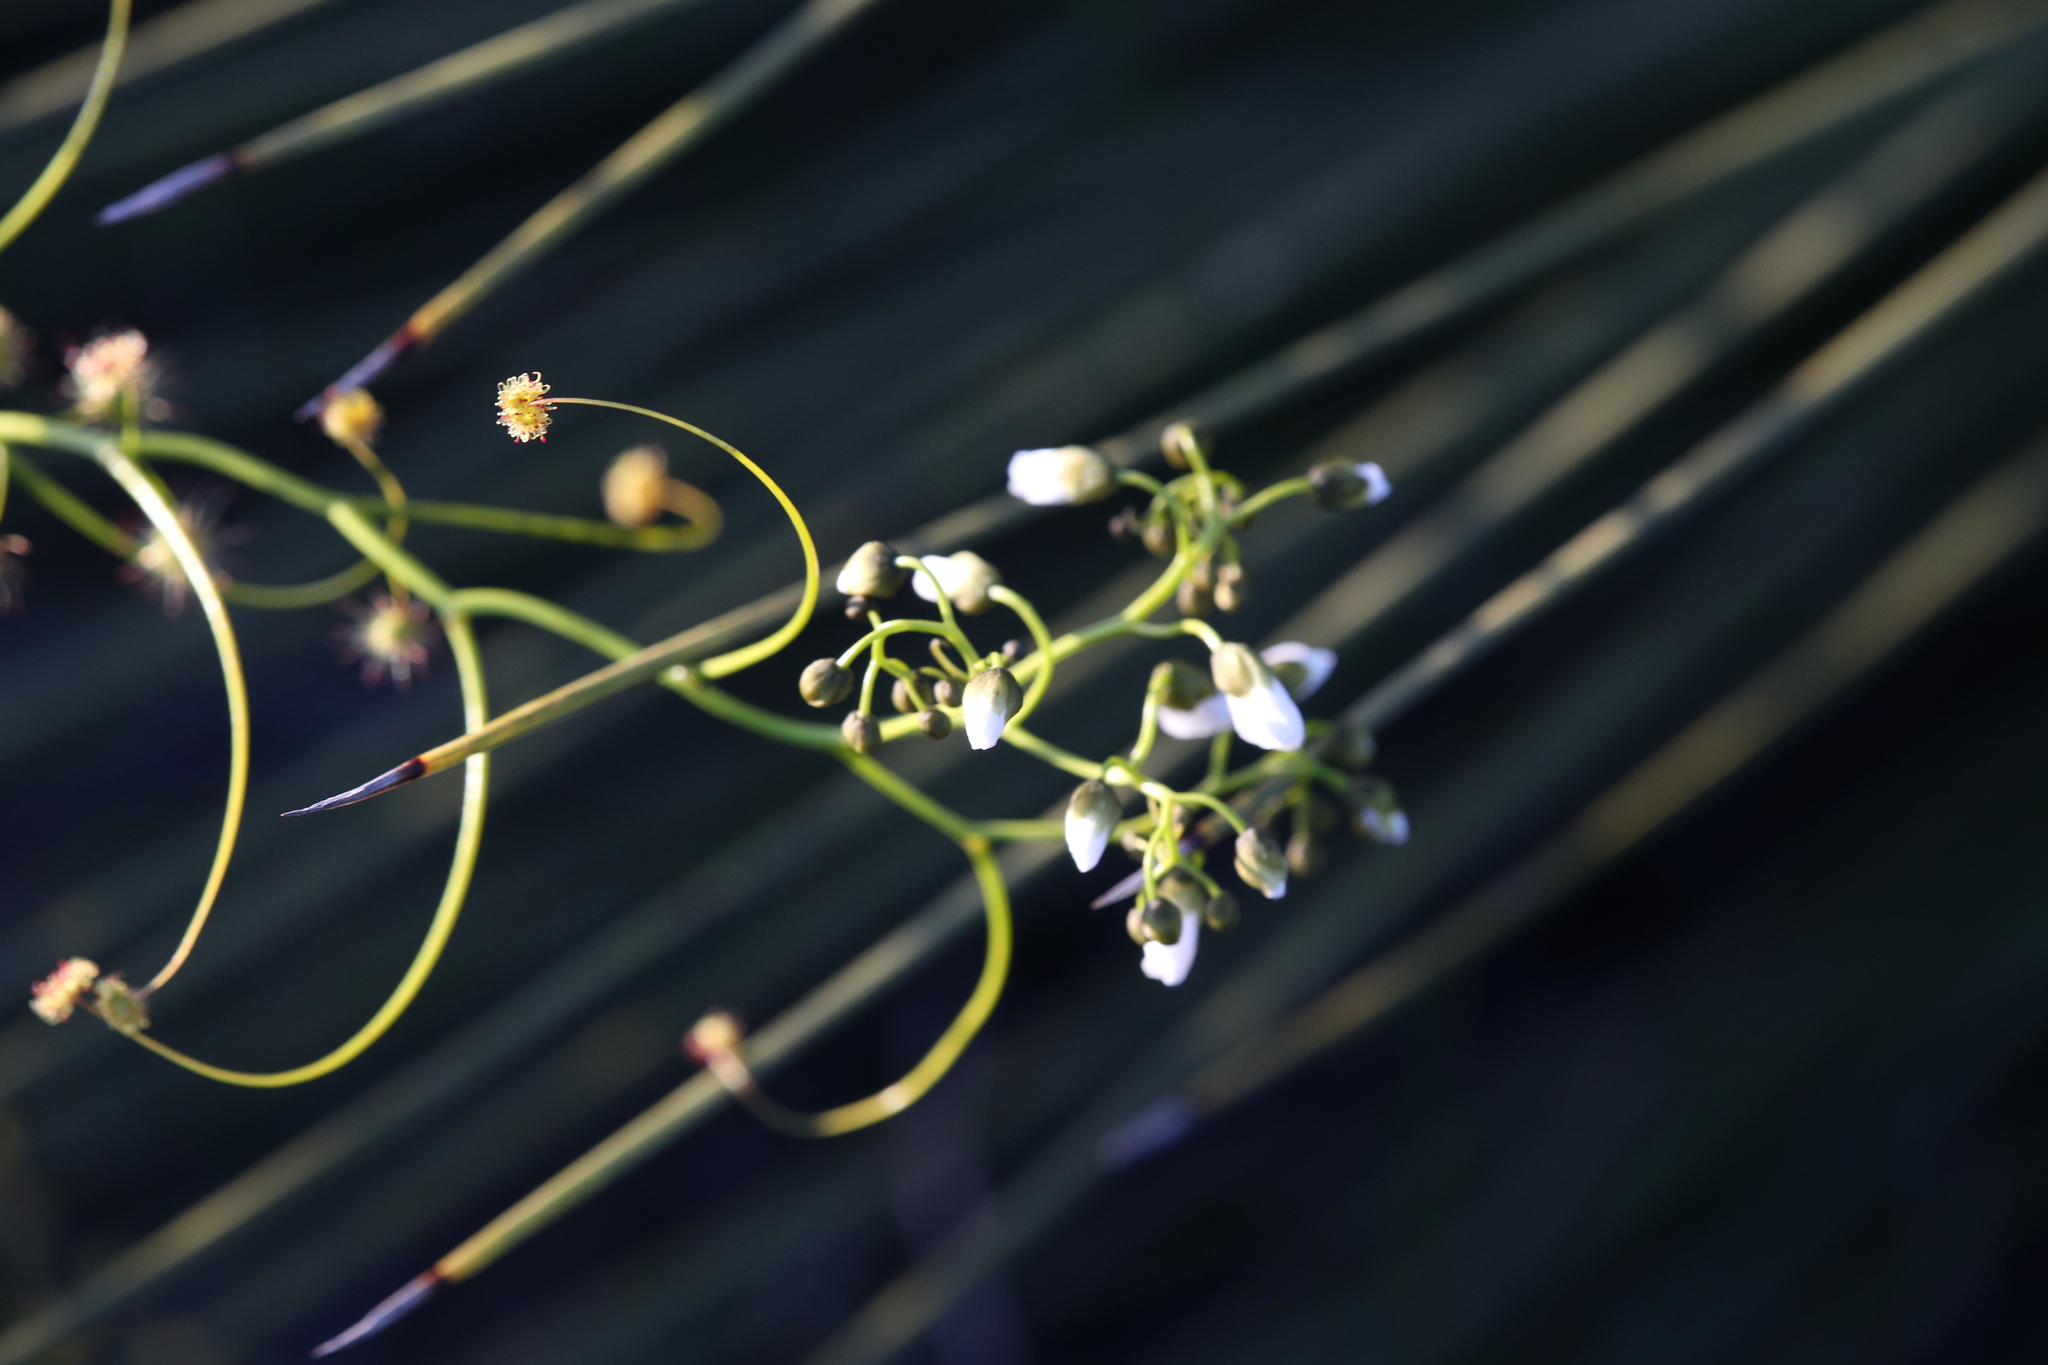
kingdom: Plantae
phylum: Tracheophyta
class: Magnoliopsida
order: Caryophyllales
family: Droseraceae
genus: Drosera
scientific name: Drosera pallida
